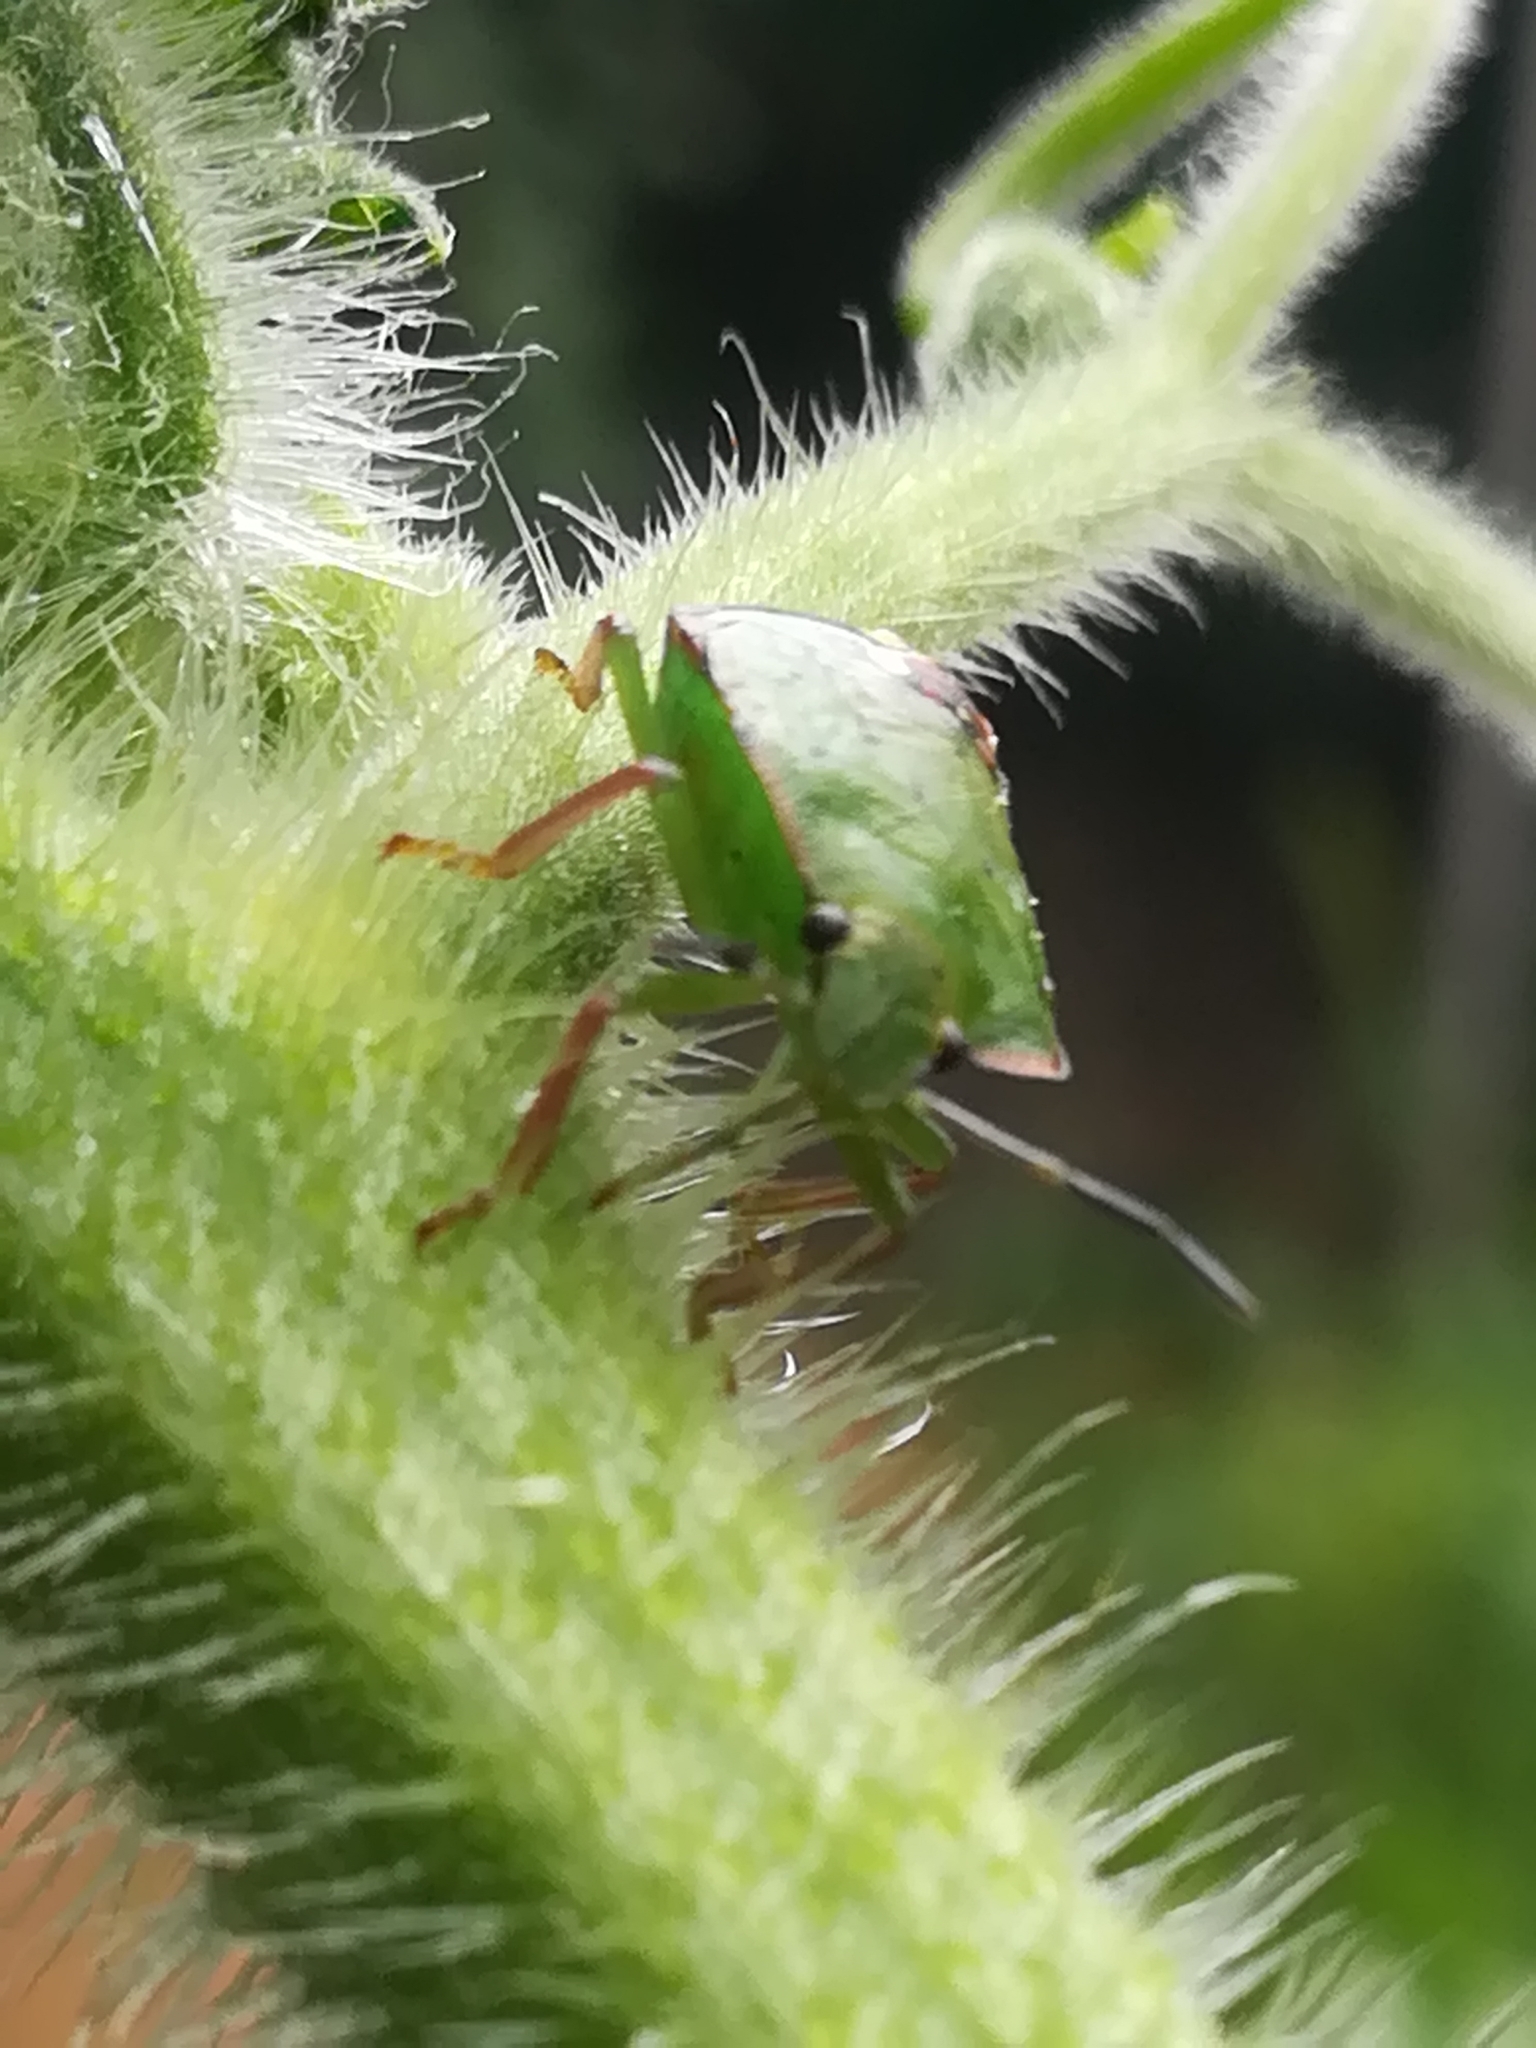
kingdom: Animalia
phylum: Arthropoda
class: Insecta
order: Hemiptera
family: Pentatomidae
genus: Nezara
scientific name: Nezara viridula
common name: Southern green stink bug
